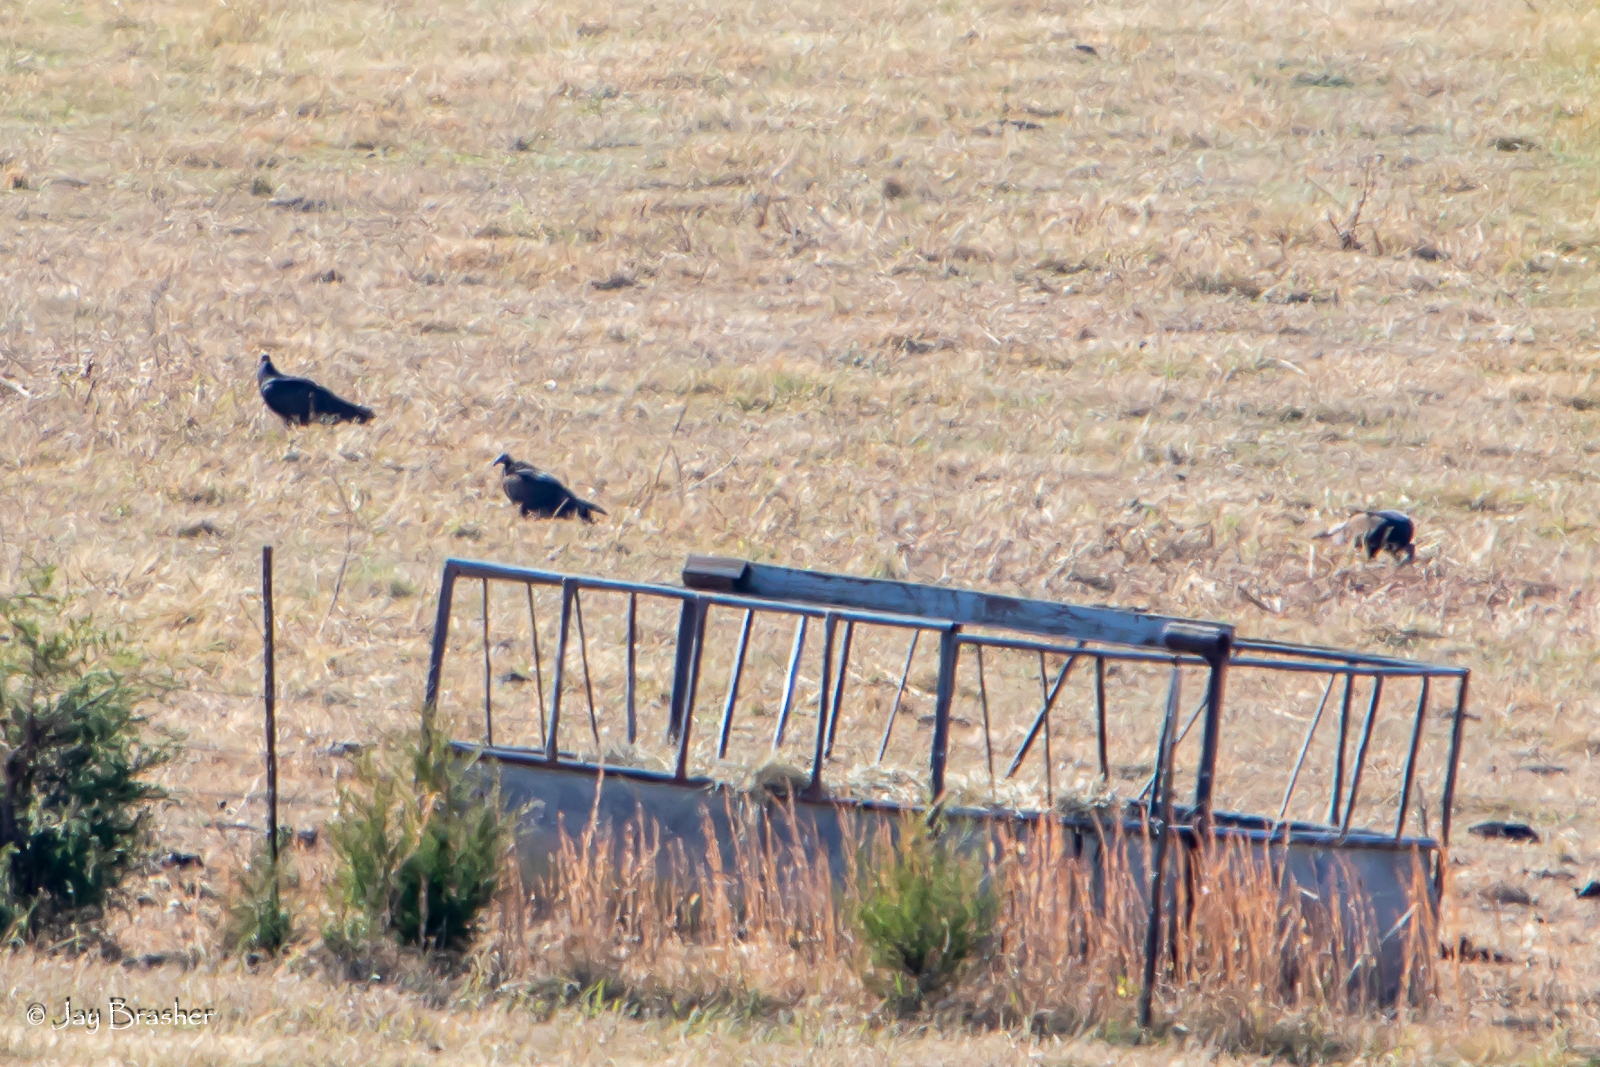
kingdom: Animalia
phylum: Chordata
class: Aves
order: Accipitriformes
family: Cathartidae
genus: Coragyps
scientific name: Coragyps atratus
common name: Black vulture
